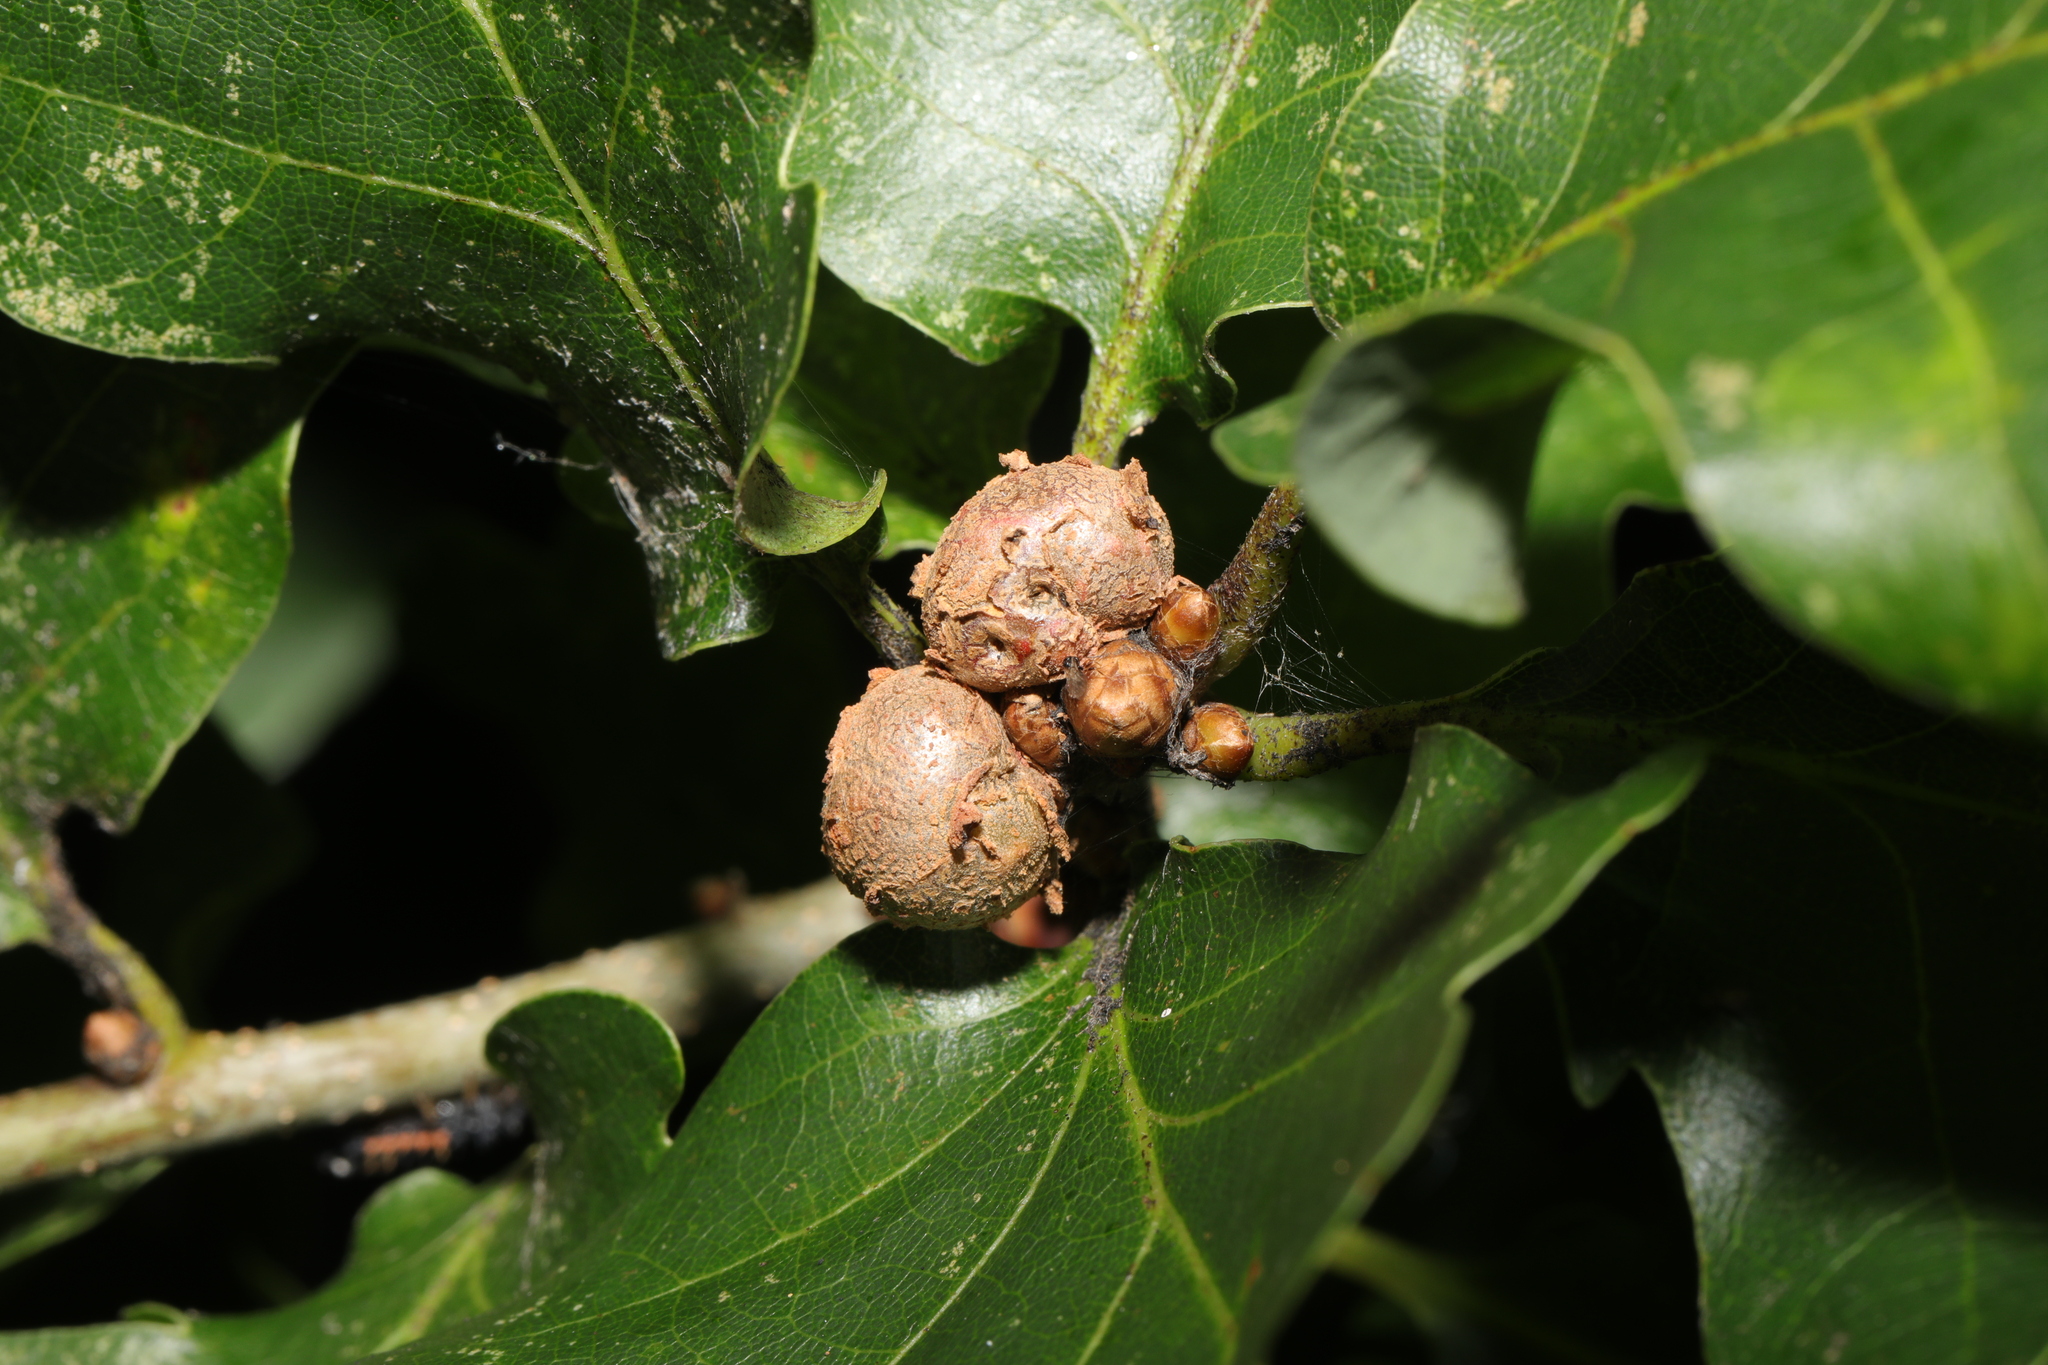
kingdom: Animalia
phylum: Arthropoda
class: Insecta
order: Hymenoptera
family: Cynipidae
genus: Andricus
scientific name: Andricus lignicolus
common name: Cola-nut gall
